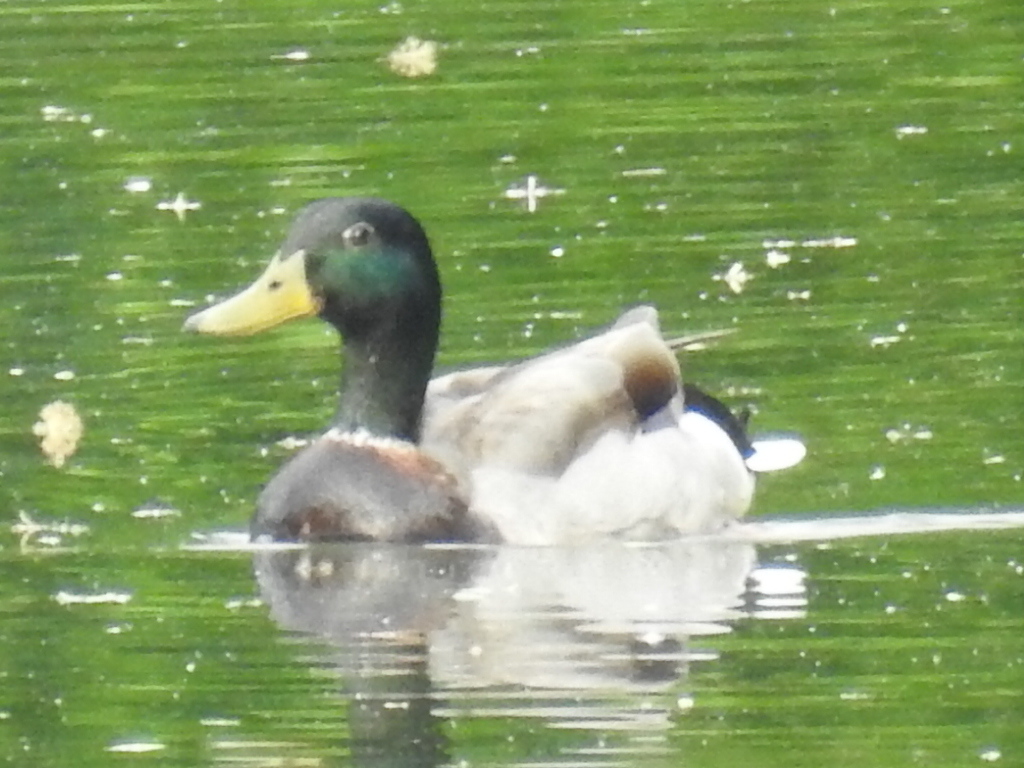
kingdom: Animalia
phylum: Chordata
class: Aves
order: Anseriformes
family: Anatidae
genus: Anas
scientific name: Anas platyrhynchos
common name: Mallard
